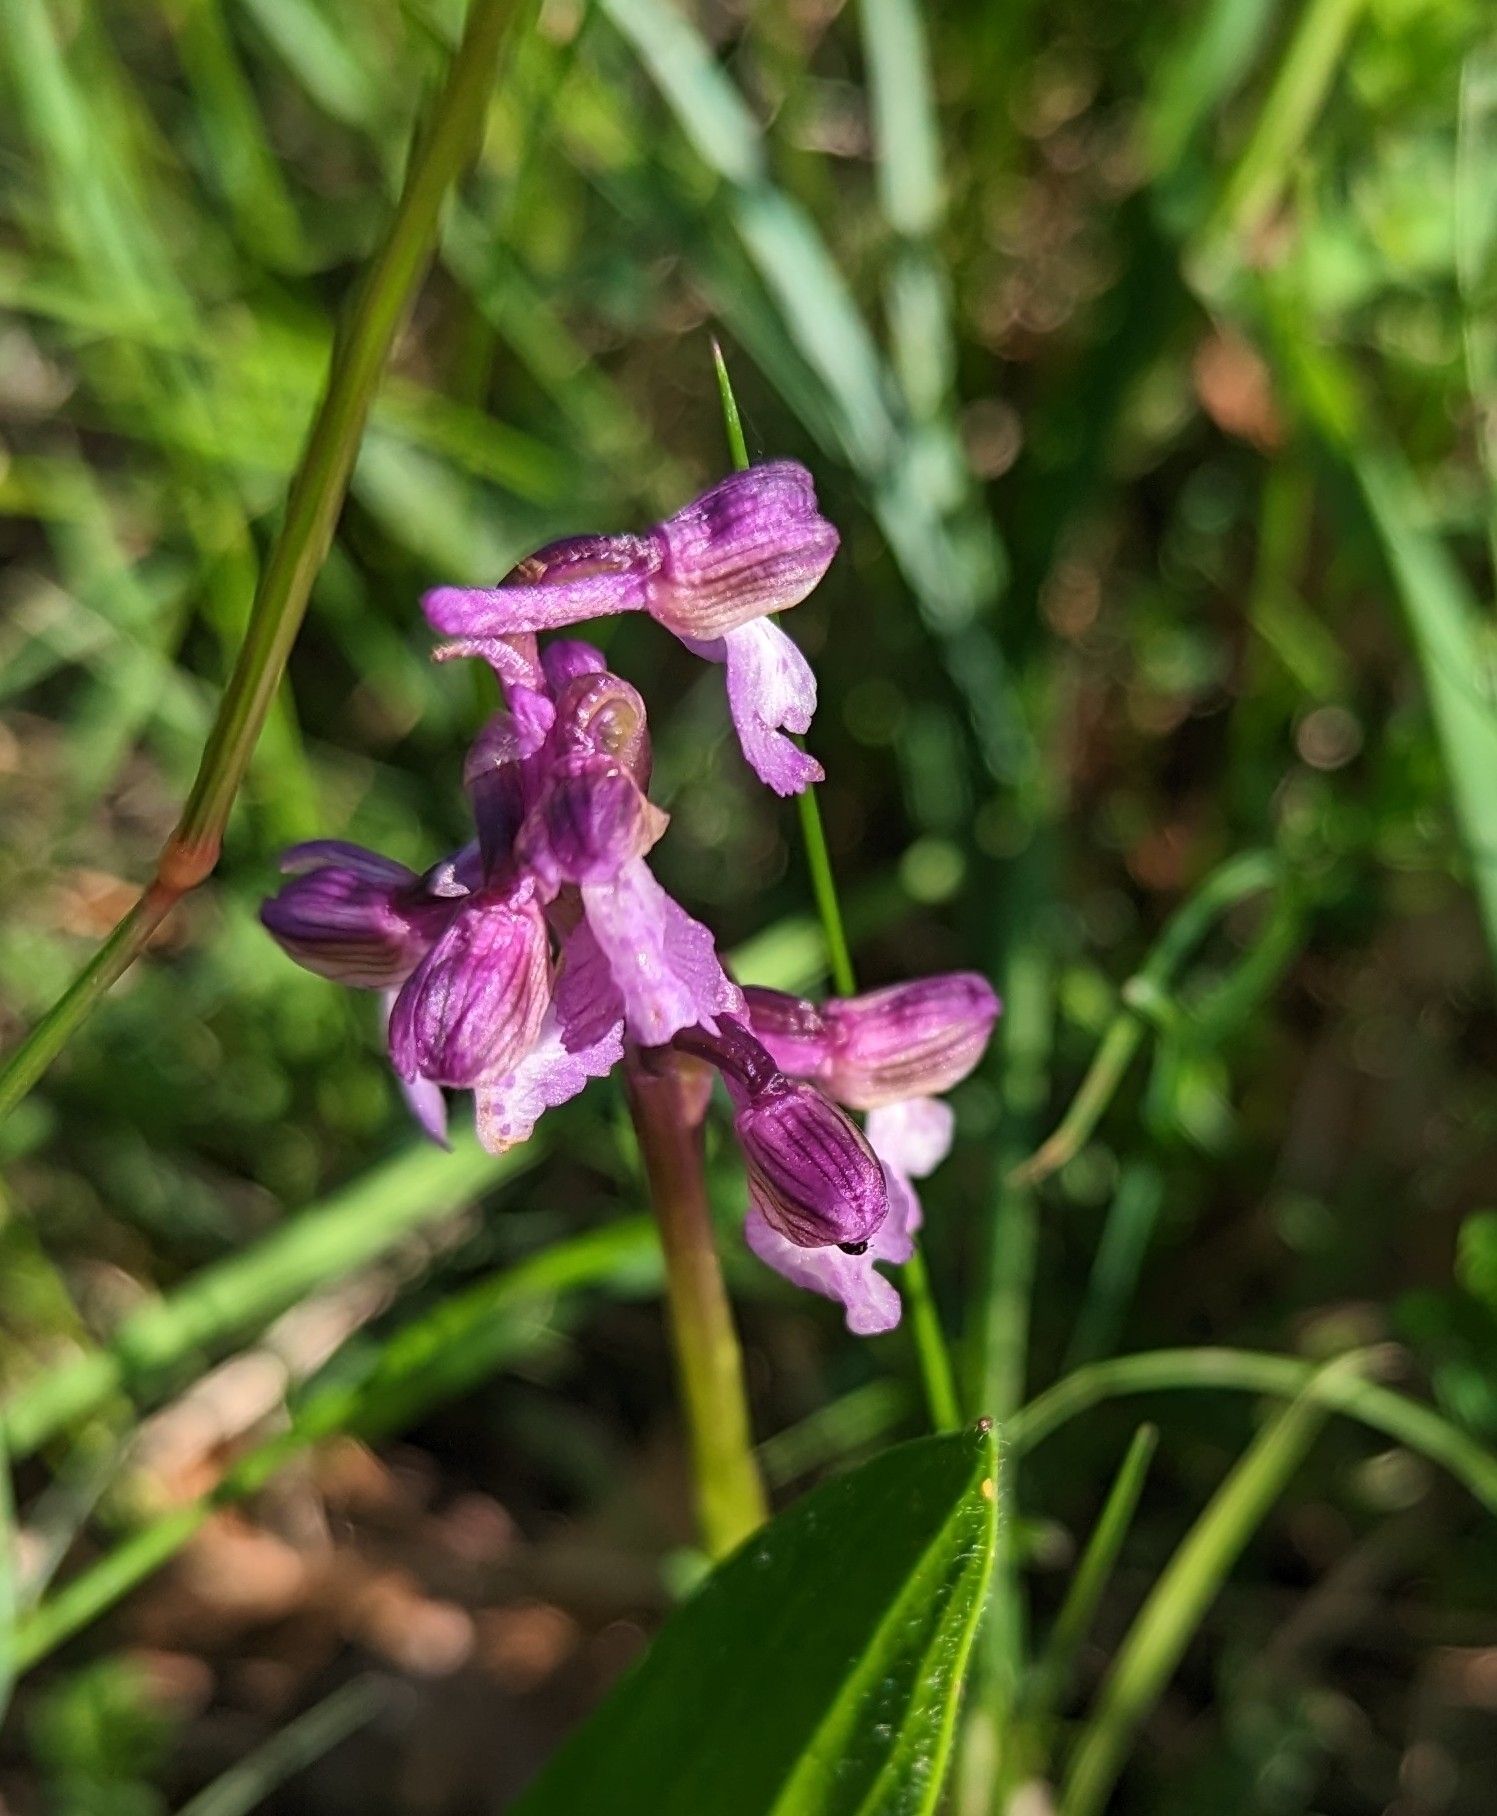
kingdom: Plantae
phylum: Tracheophyta
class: Liliopsida
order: Asparagales
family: Orchidaceae
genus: Anacamptis
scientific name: Anacamptis morio
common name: Green-winged orchid
